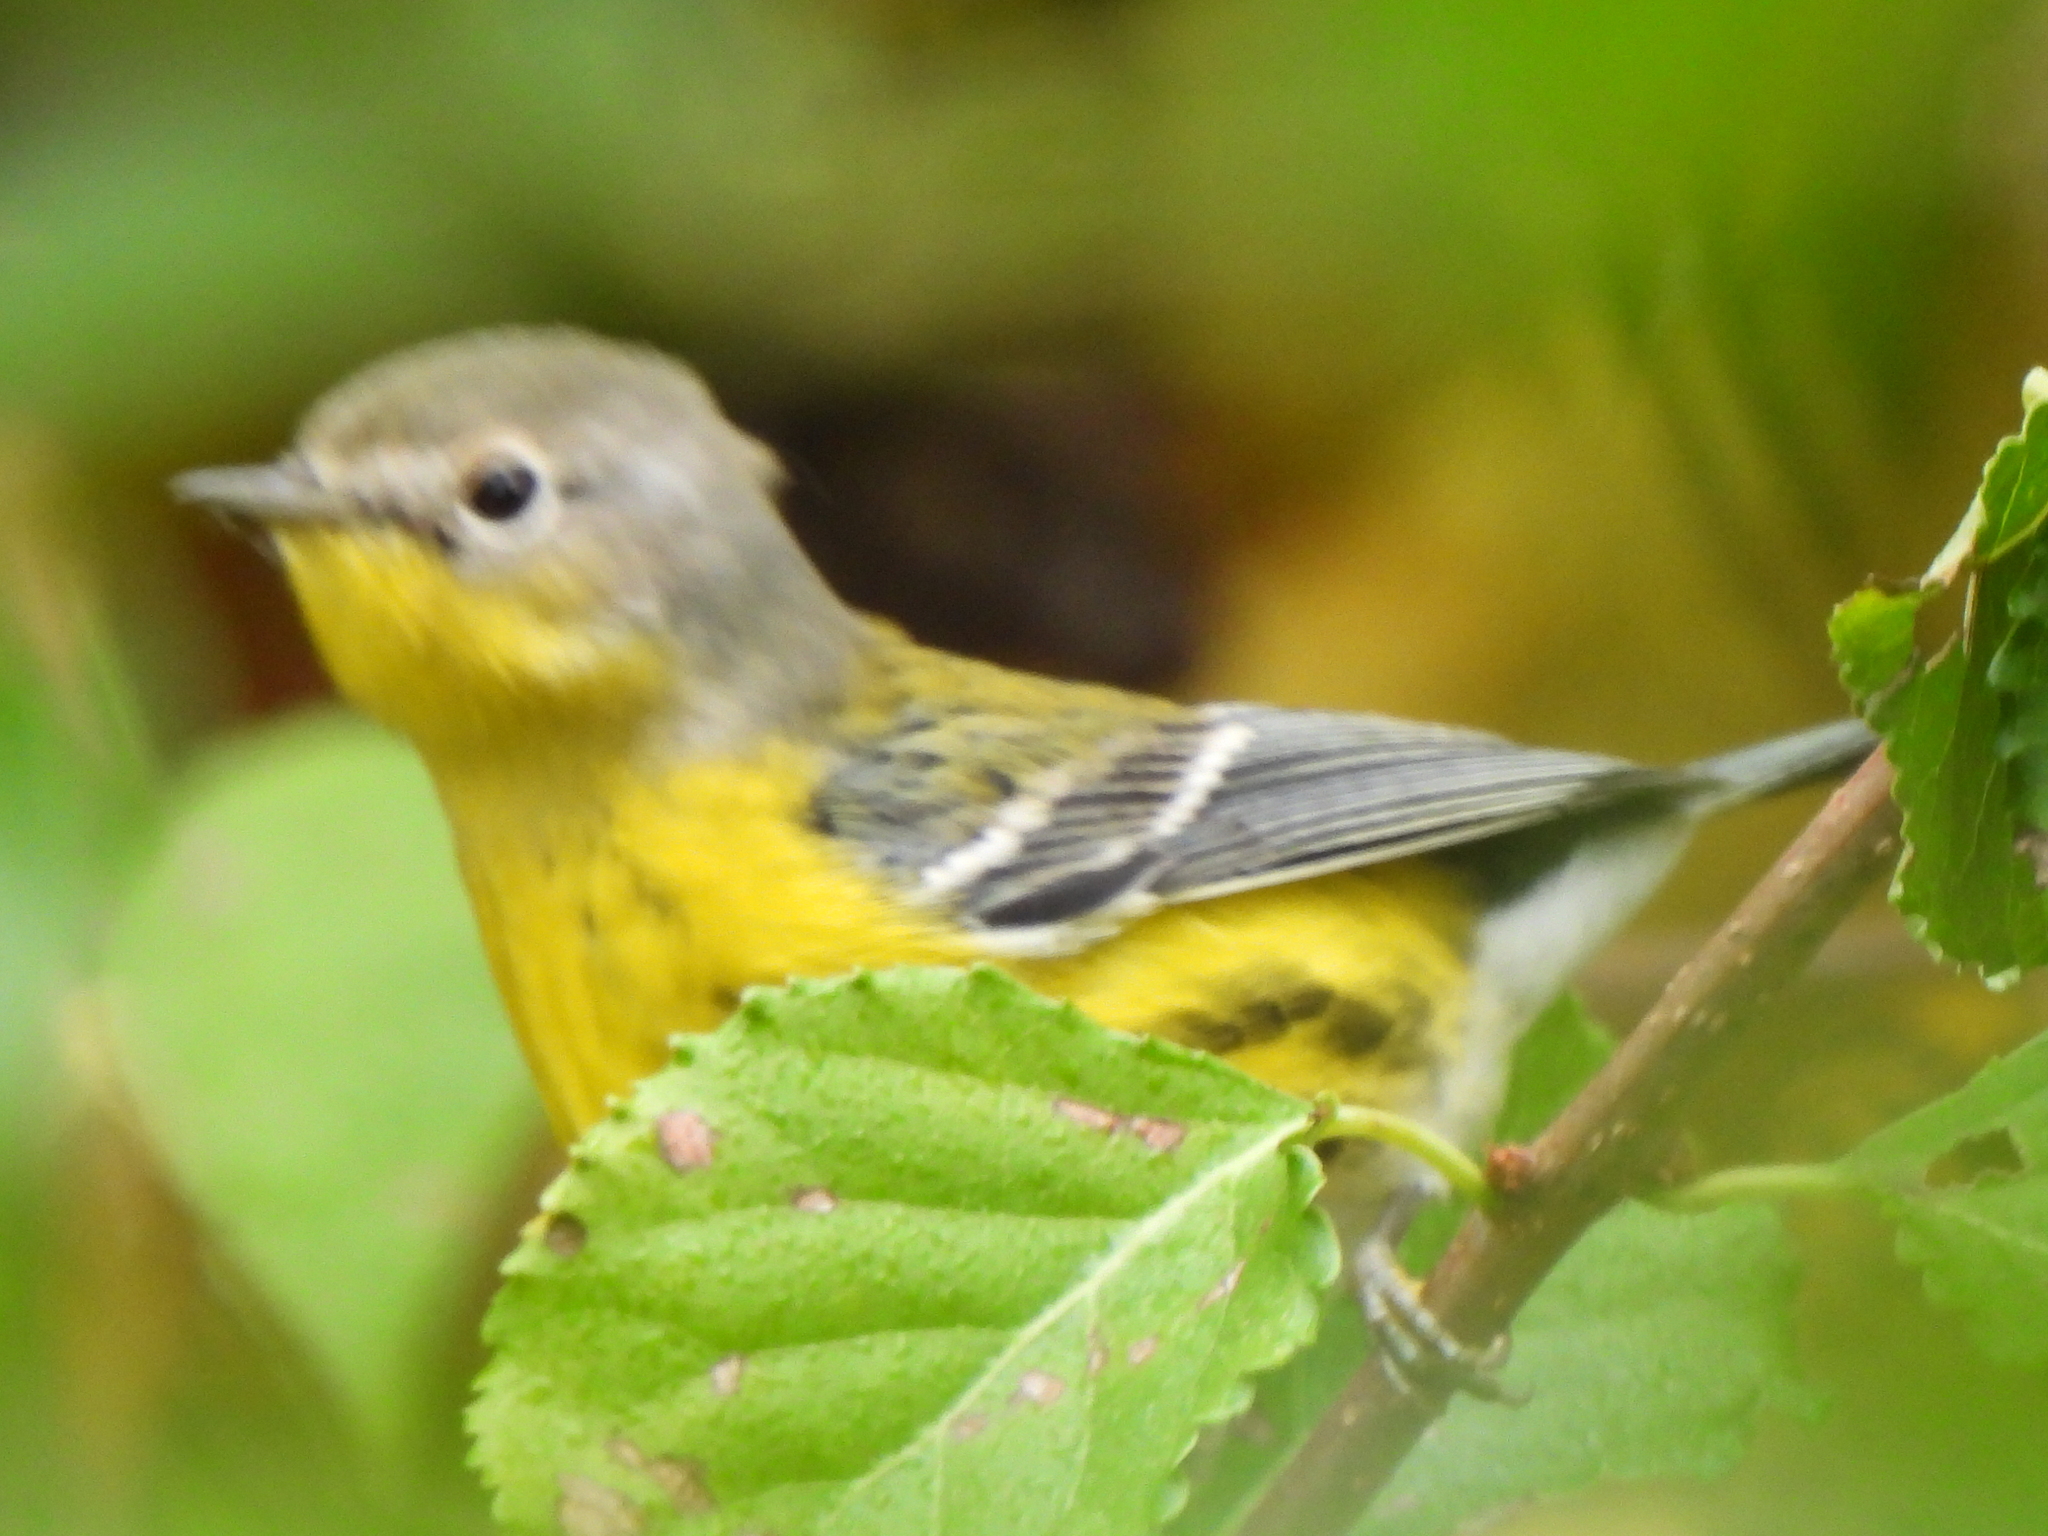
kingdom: Animalia
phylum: Chordata
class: Aves
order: Passeriformes
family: Parulidae
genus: Setophaga
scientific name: Setophaga magnolia
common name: Magnolia warbler
